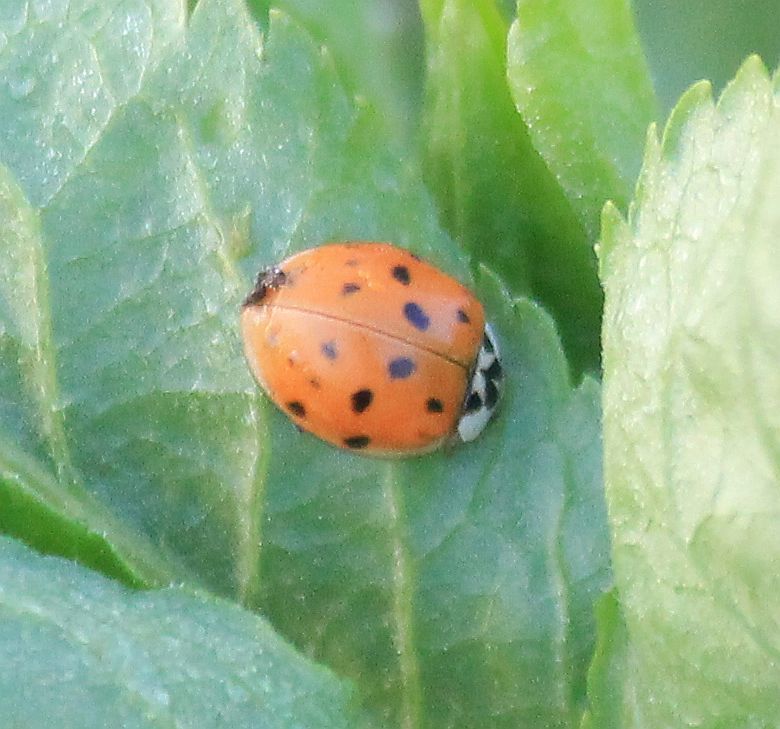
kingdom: Animalia
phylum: Arthropoda
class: Insecta
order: Coleoptera
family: Coccinellidae
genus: Harmonia
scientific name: Harmonia axyridis
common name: Harlequin ladybird
